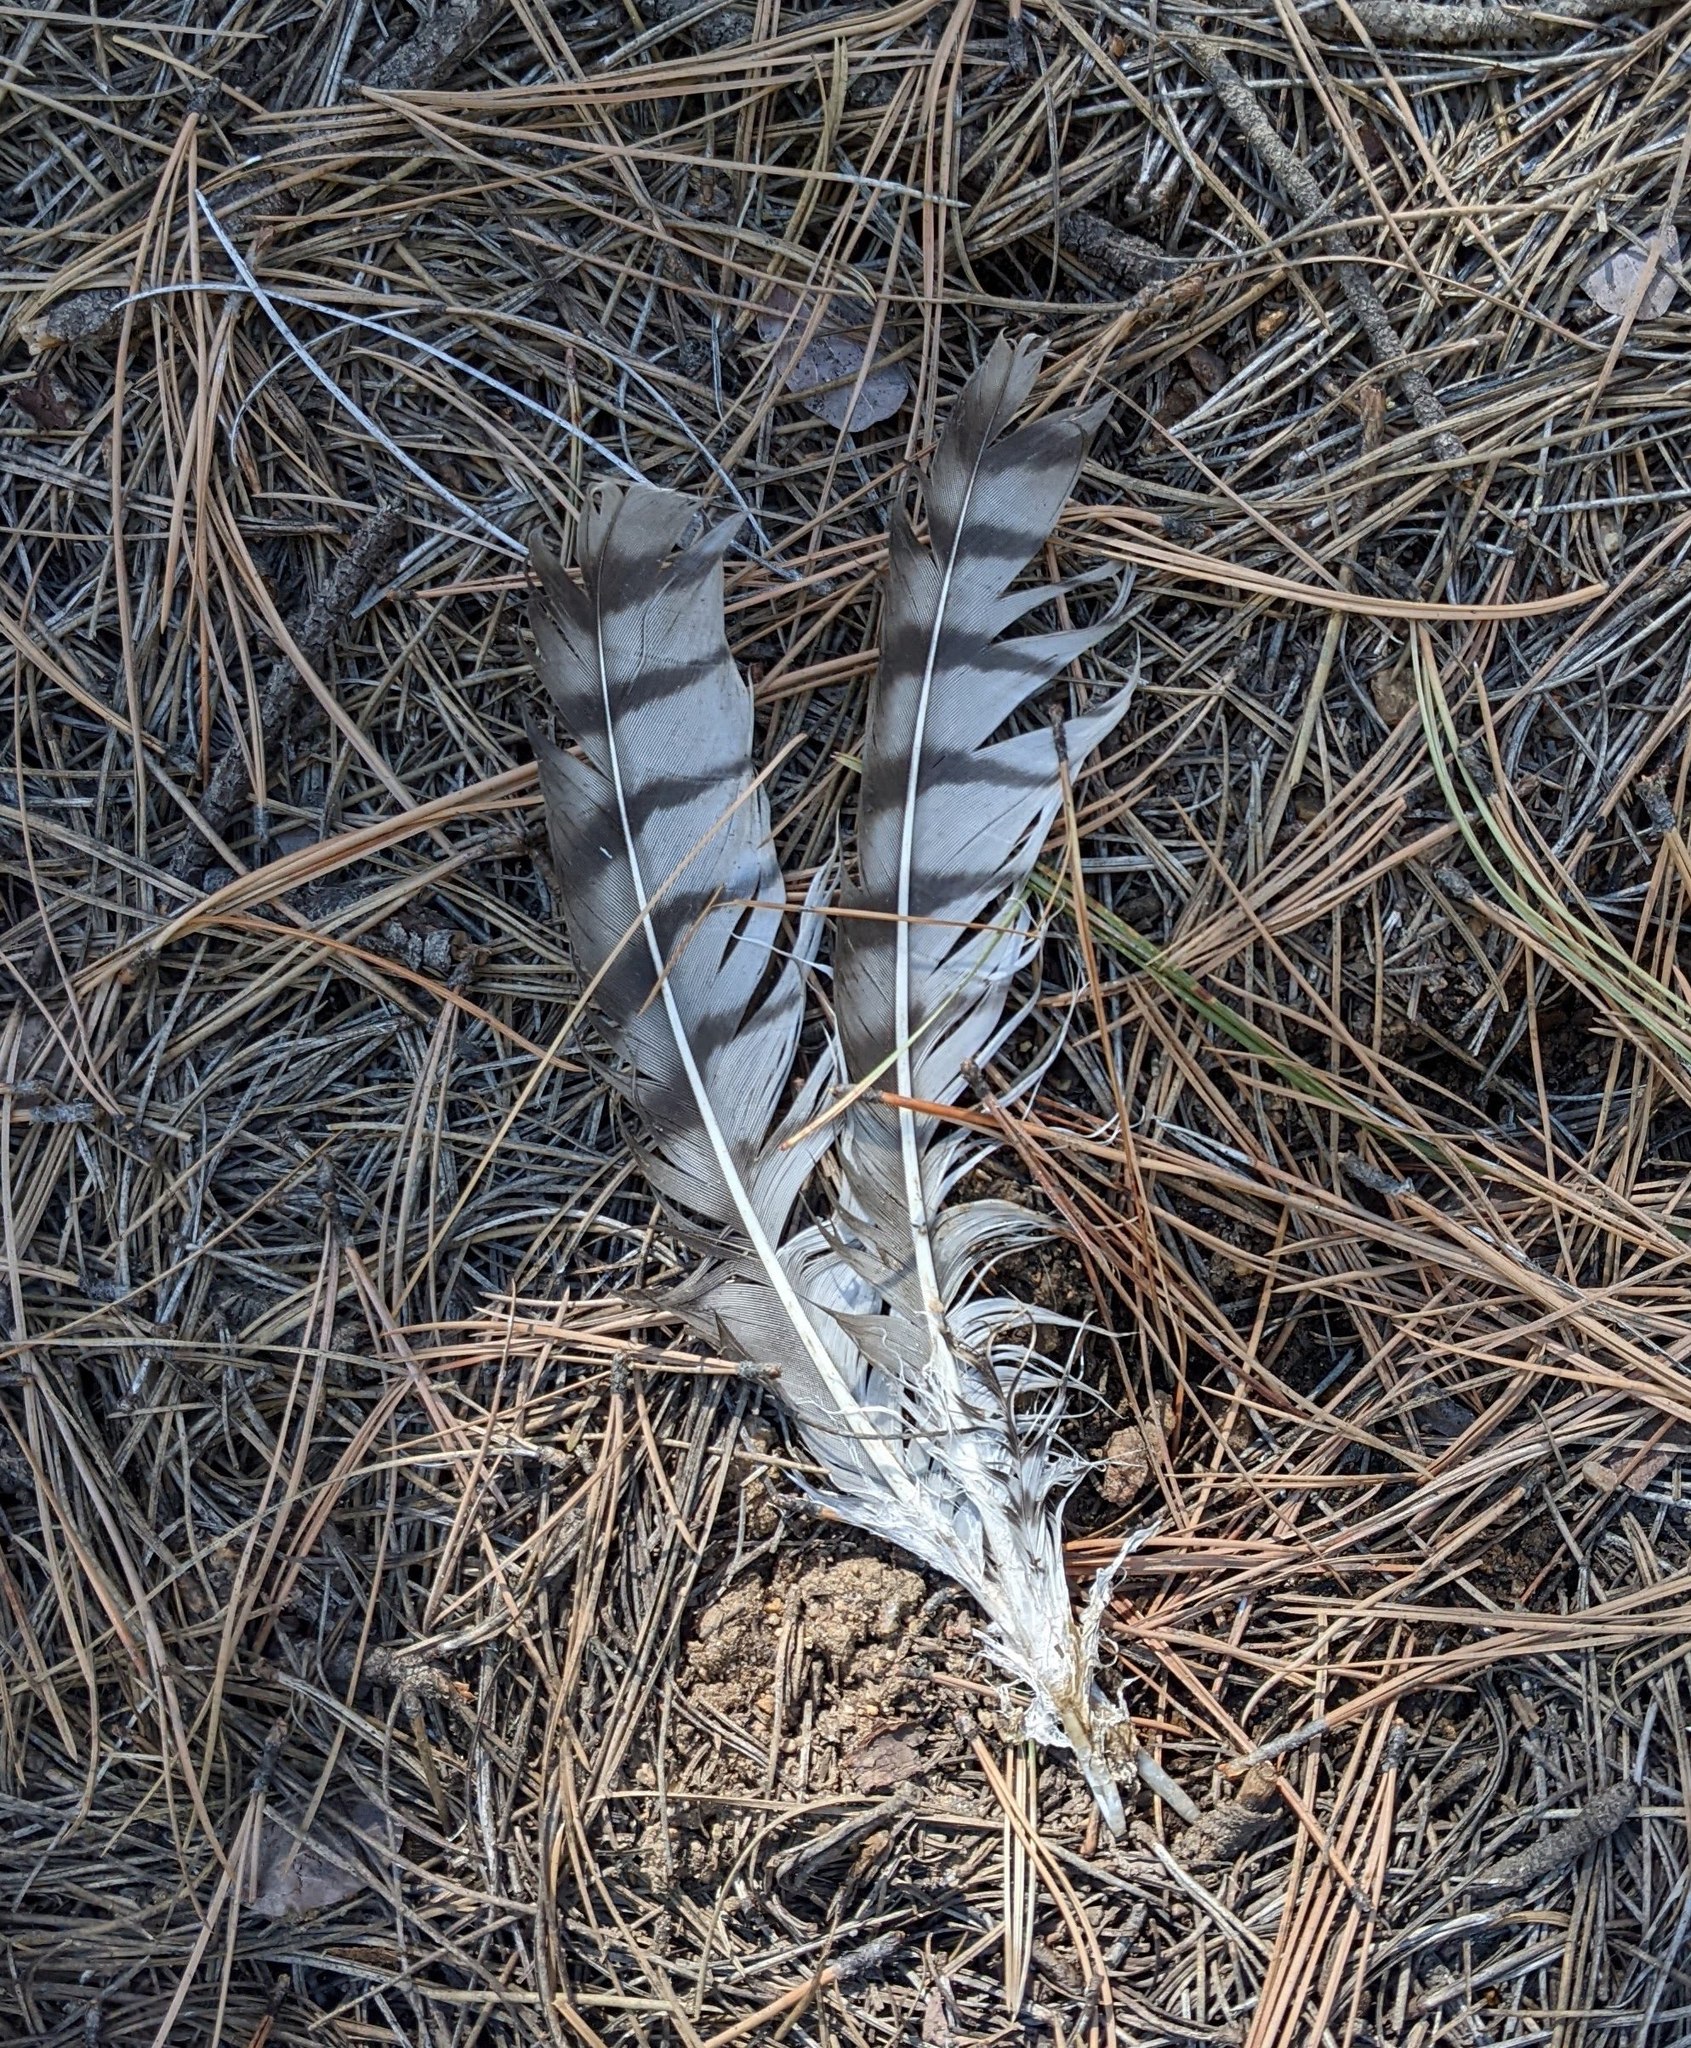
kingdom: Animalia
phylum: Chordata
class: Aves
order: Accipitriformes
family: Accipitridae
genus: Buteo
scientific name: Buteo jamaicensis
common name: Red-tailed hawk
